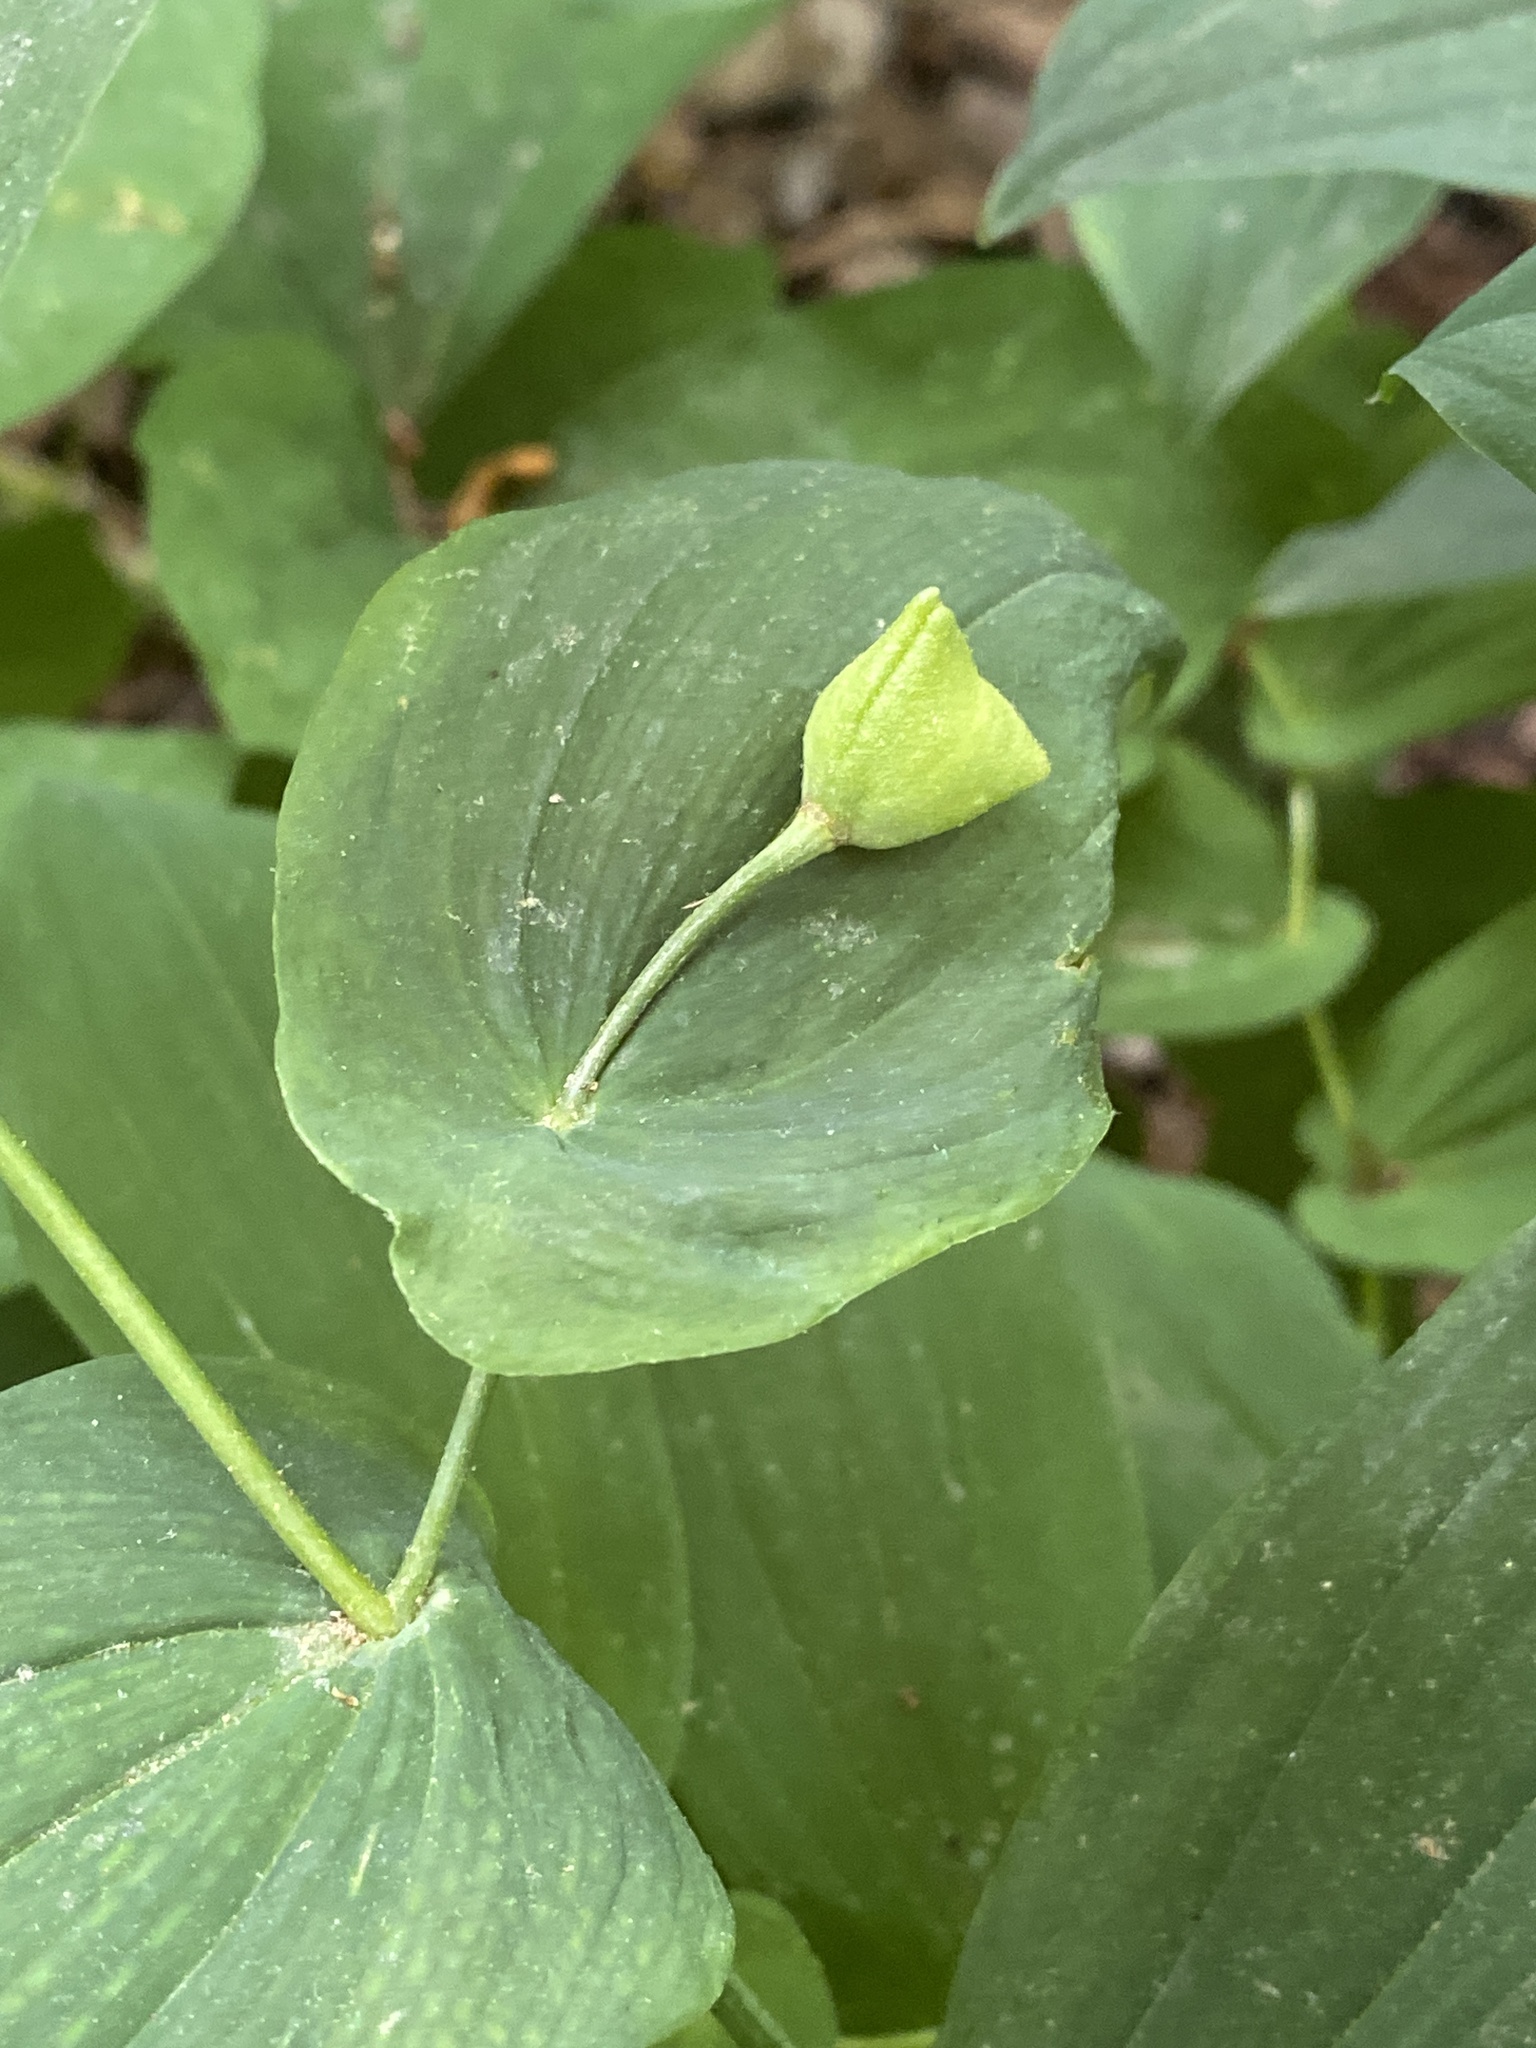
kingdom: Plantae
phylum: Tracheophyta
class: Liliopsida
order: Liliales
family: Colchicaceae
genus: Uvularia
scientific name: Uvularia grandiflora
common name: Bellwort
